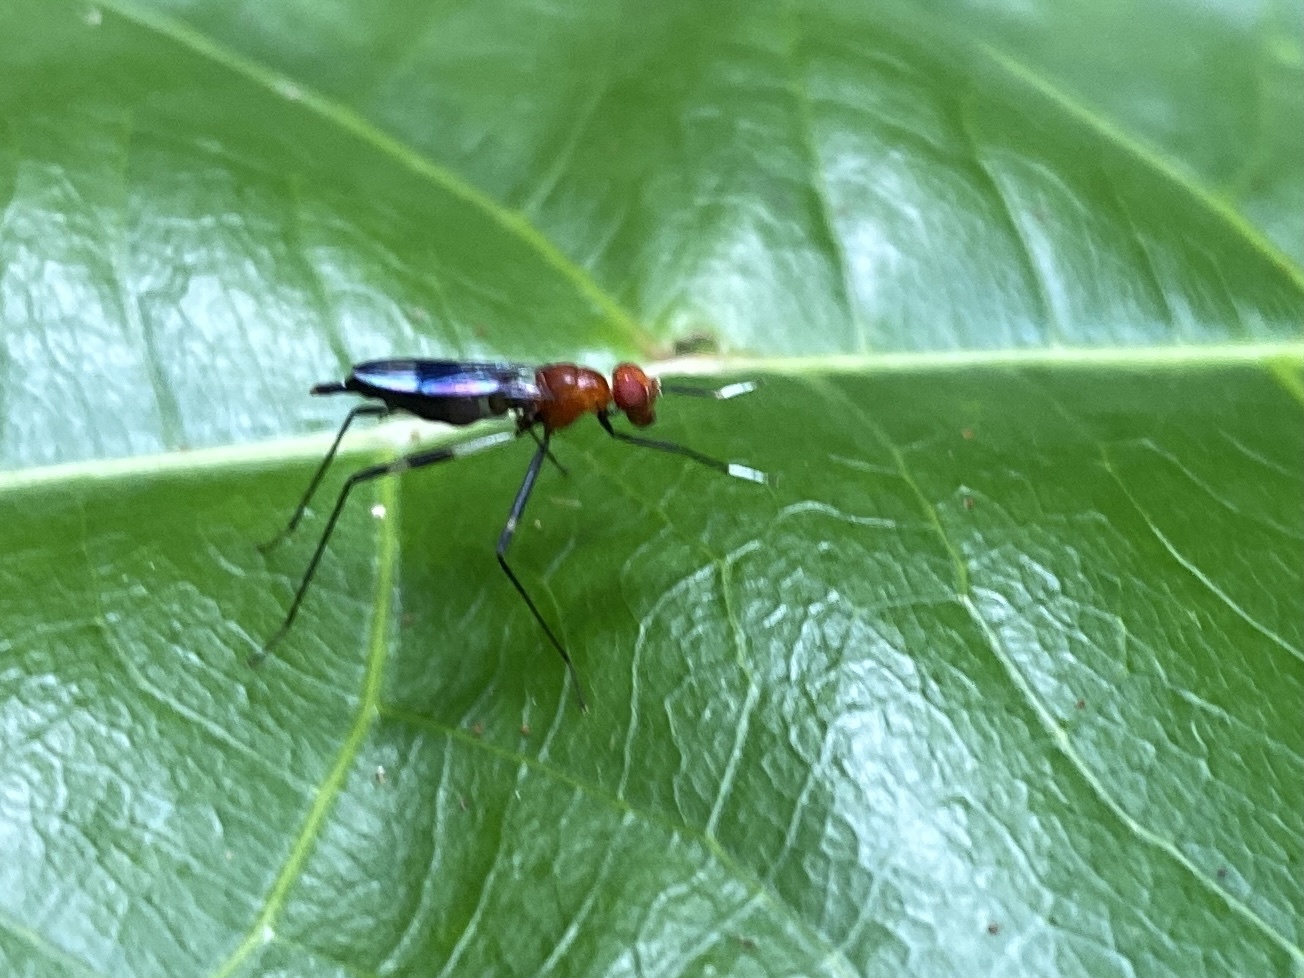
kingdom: Animalia
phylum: Arthropoda
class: Insecta
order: Diptera
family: Micropezidae
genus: Grallipeza
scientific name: Grallipeza scurra
